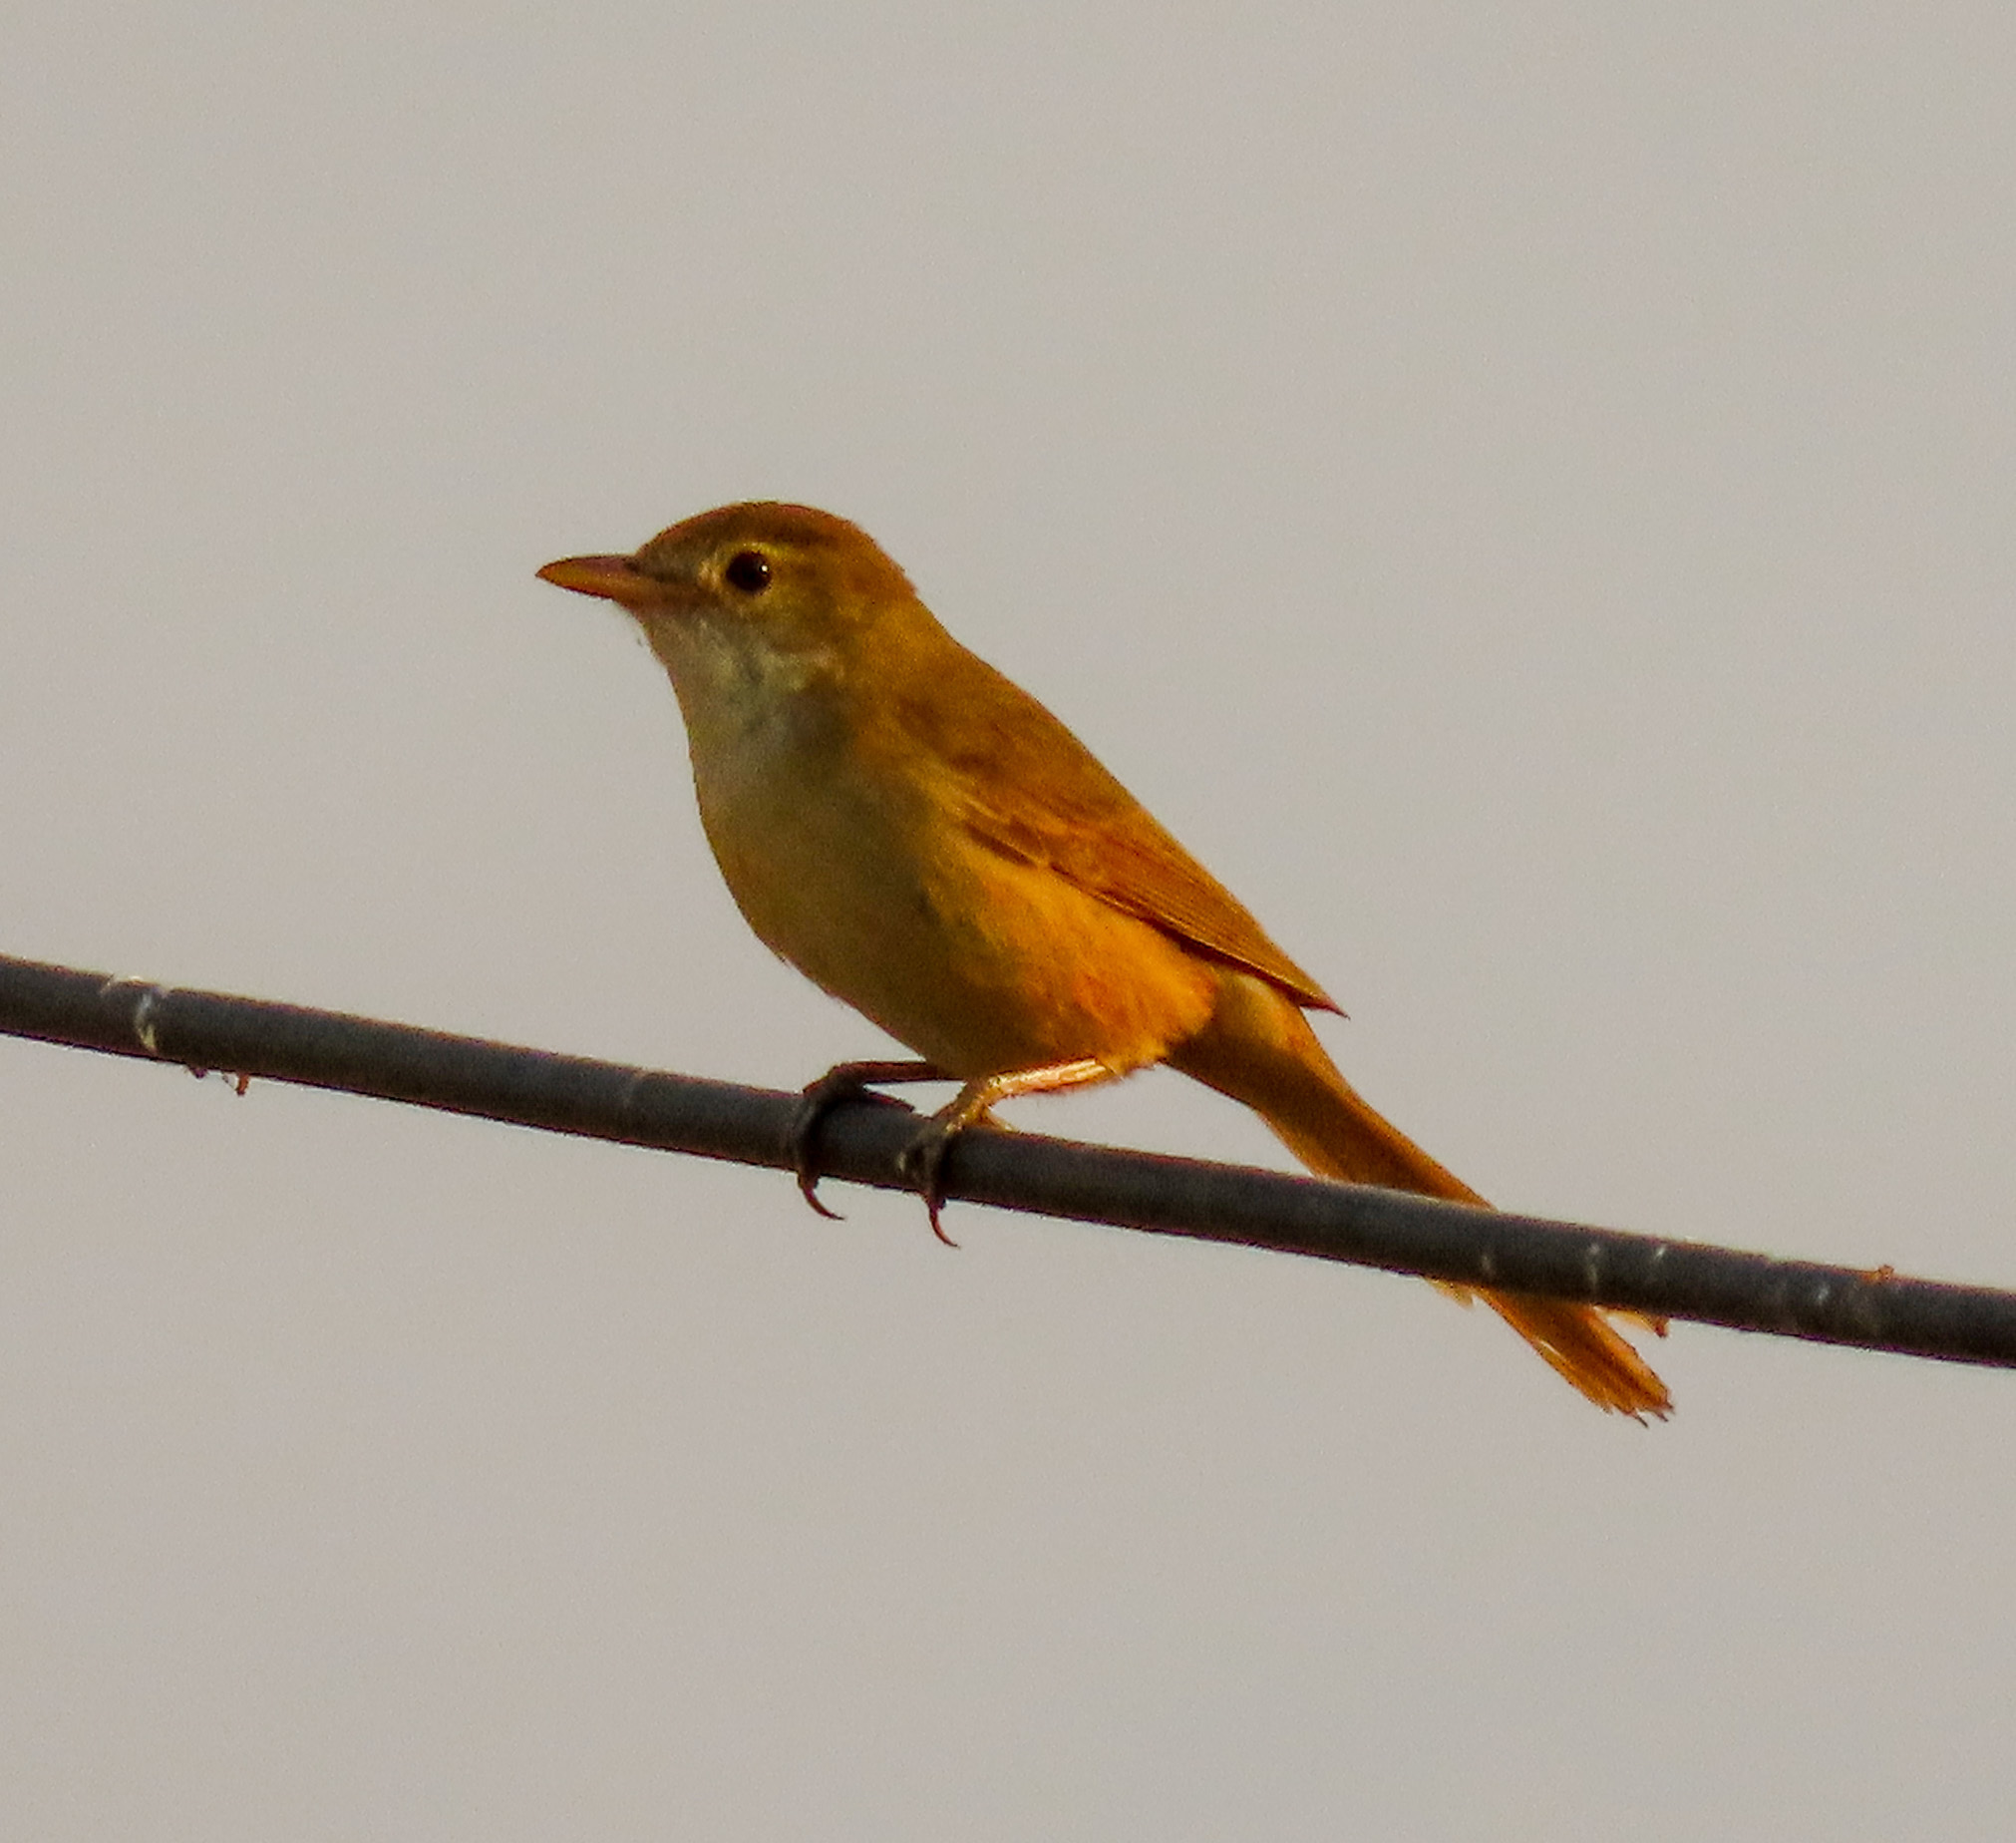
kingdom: Animalia
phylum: Chordata
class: Aves
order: Passeriformes
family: Acrocephalidae
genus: Iduna
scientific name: Iduna aedon
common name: Thick-billed warbler
